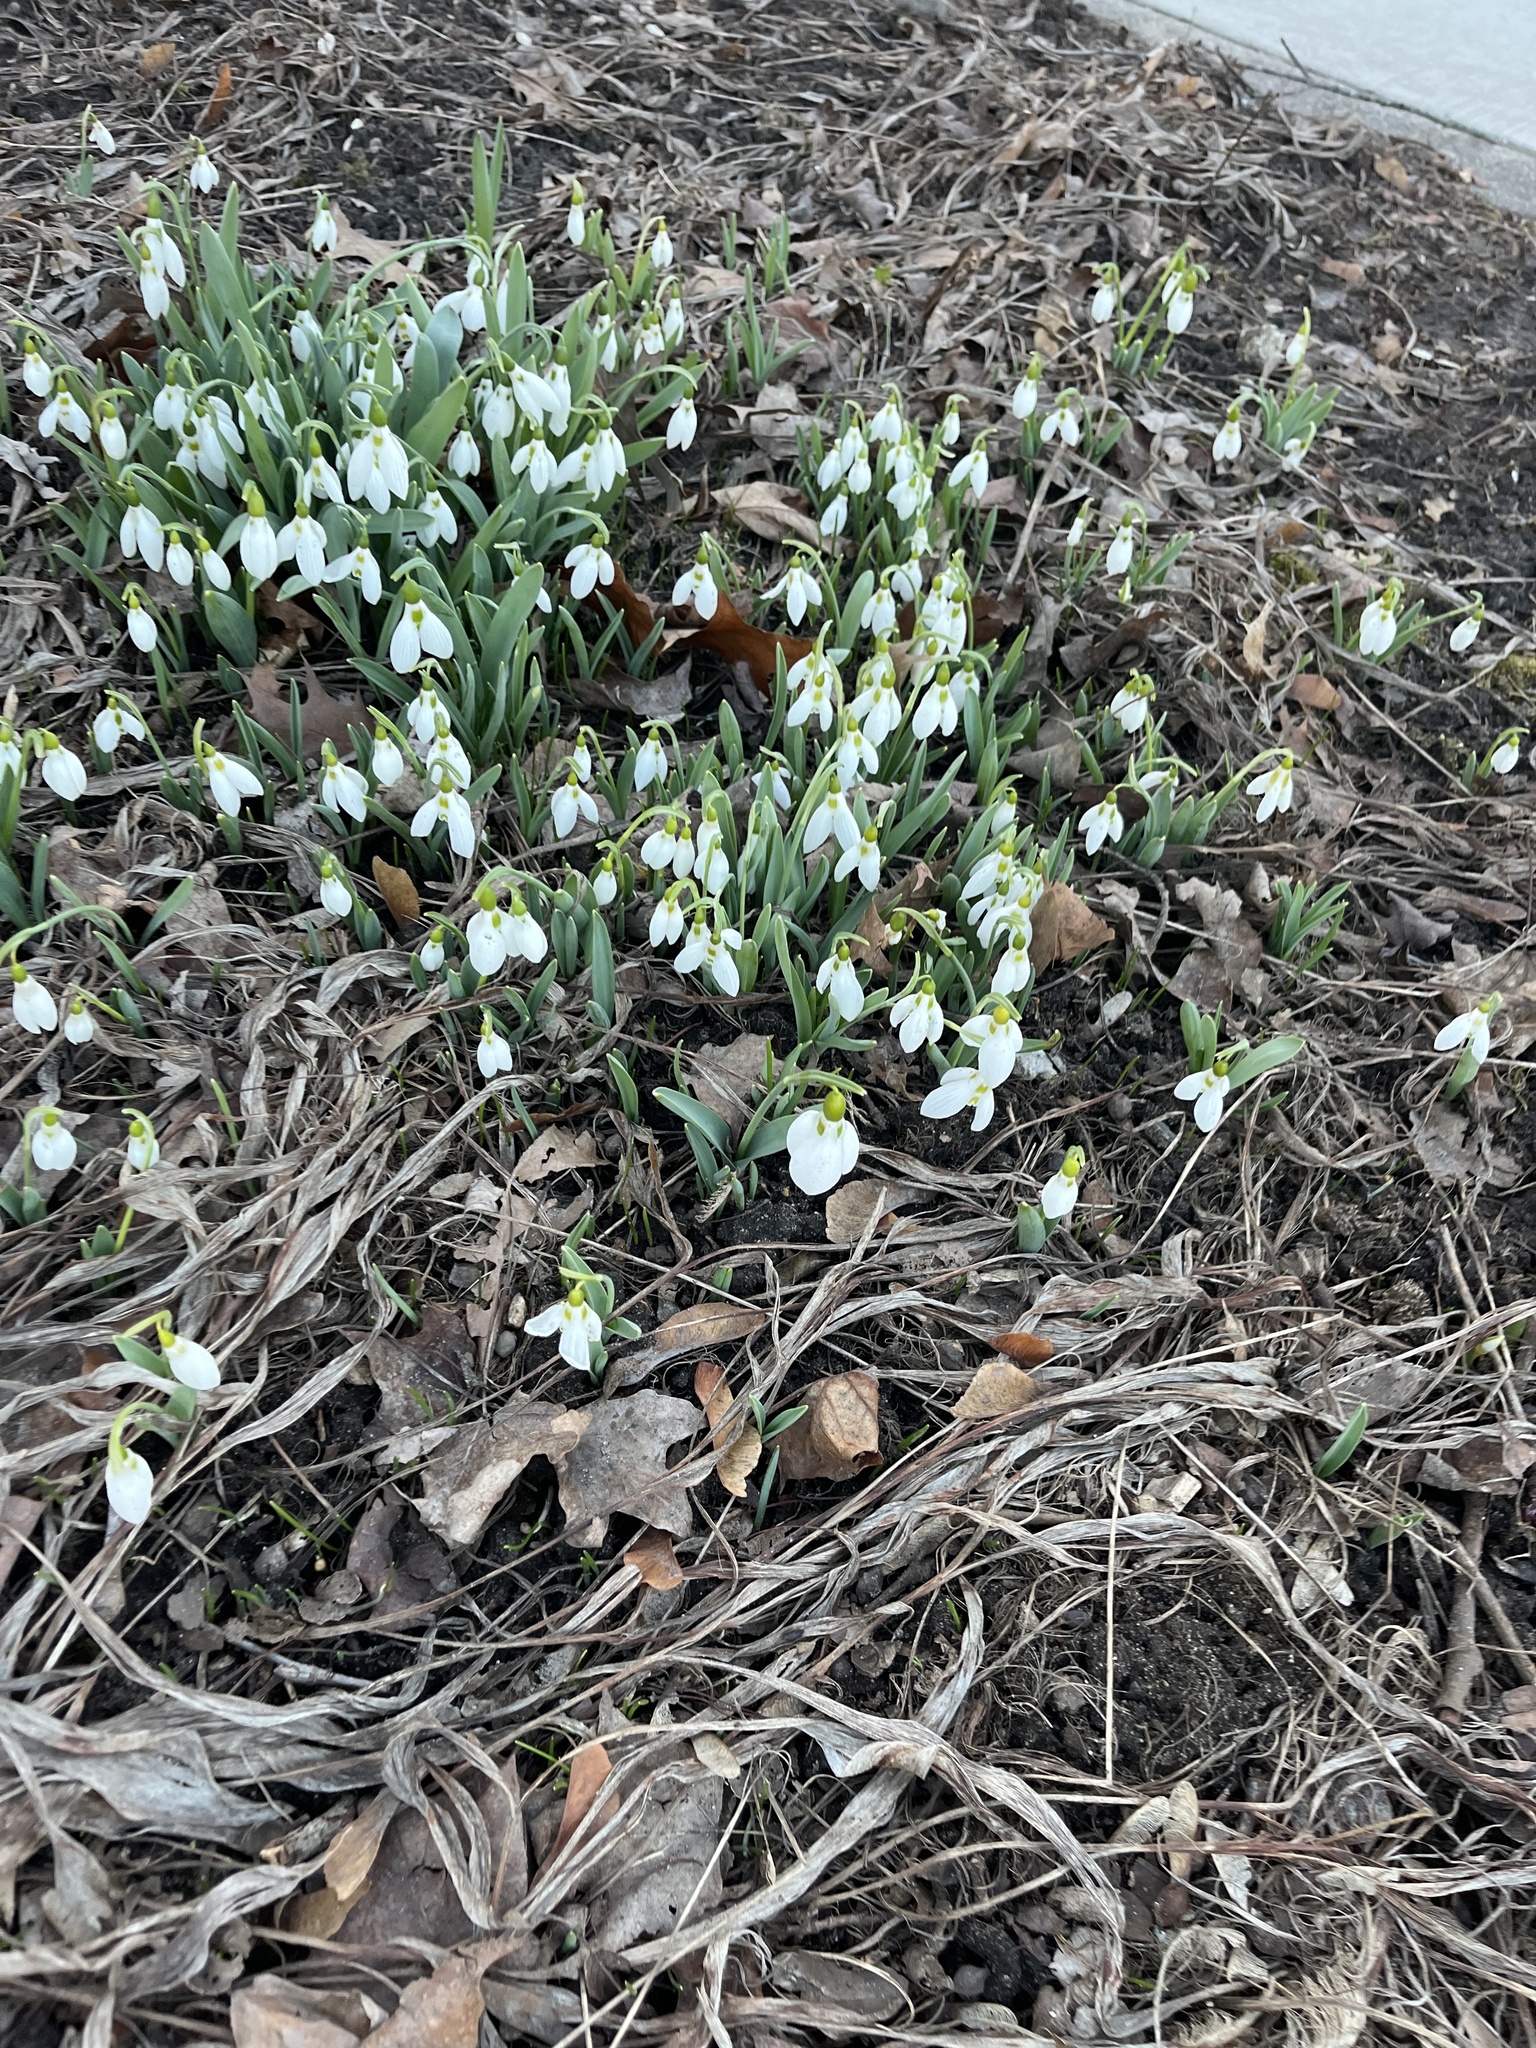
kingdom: Plantae
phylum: Tracheophyta
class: Liliopsida
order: Asparagales
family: Amaryllidaceae
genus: Galanthus
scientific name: Galanthus elwesii
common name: Greater snowdrop
